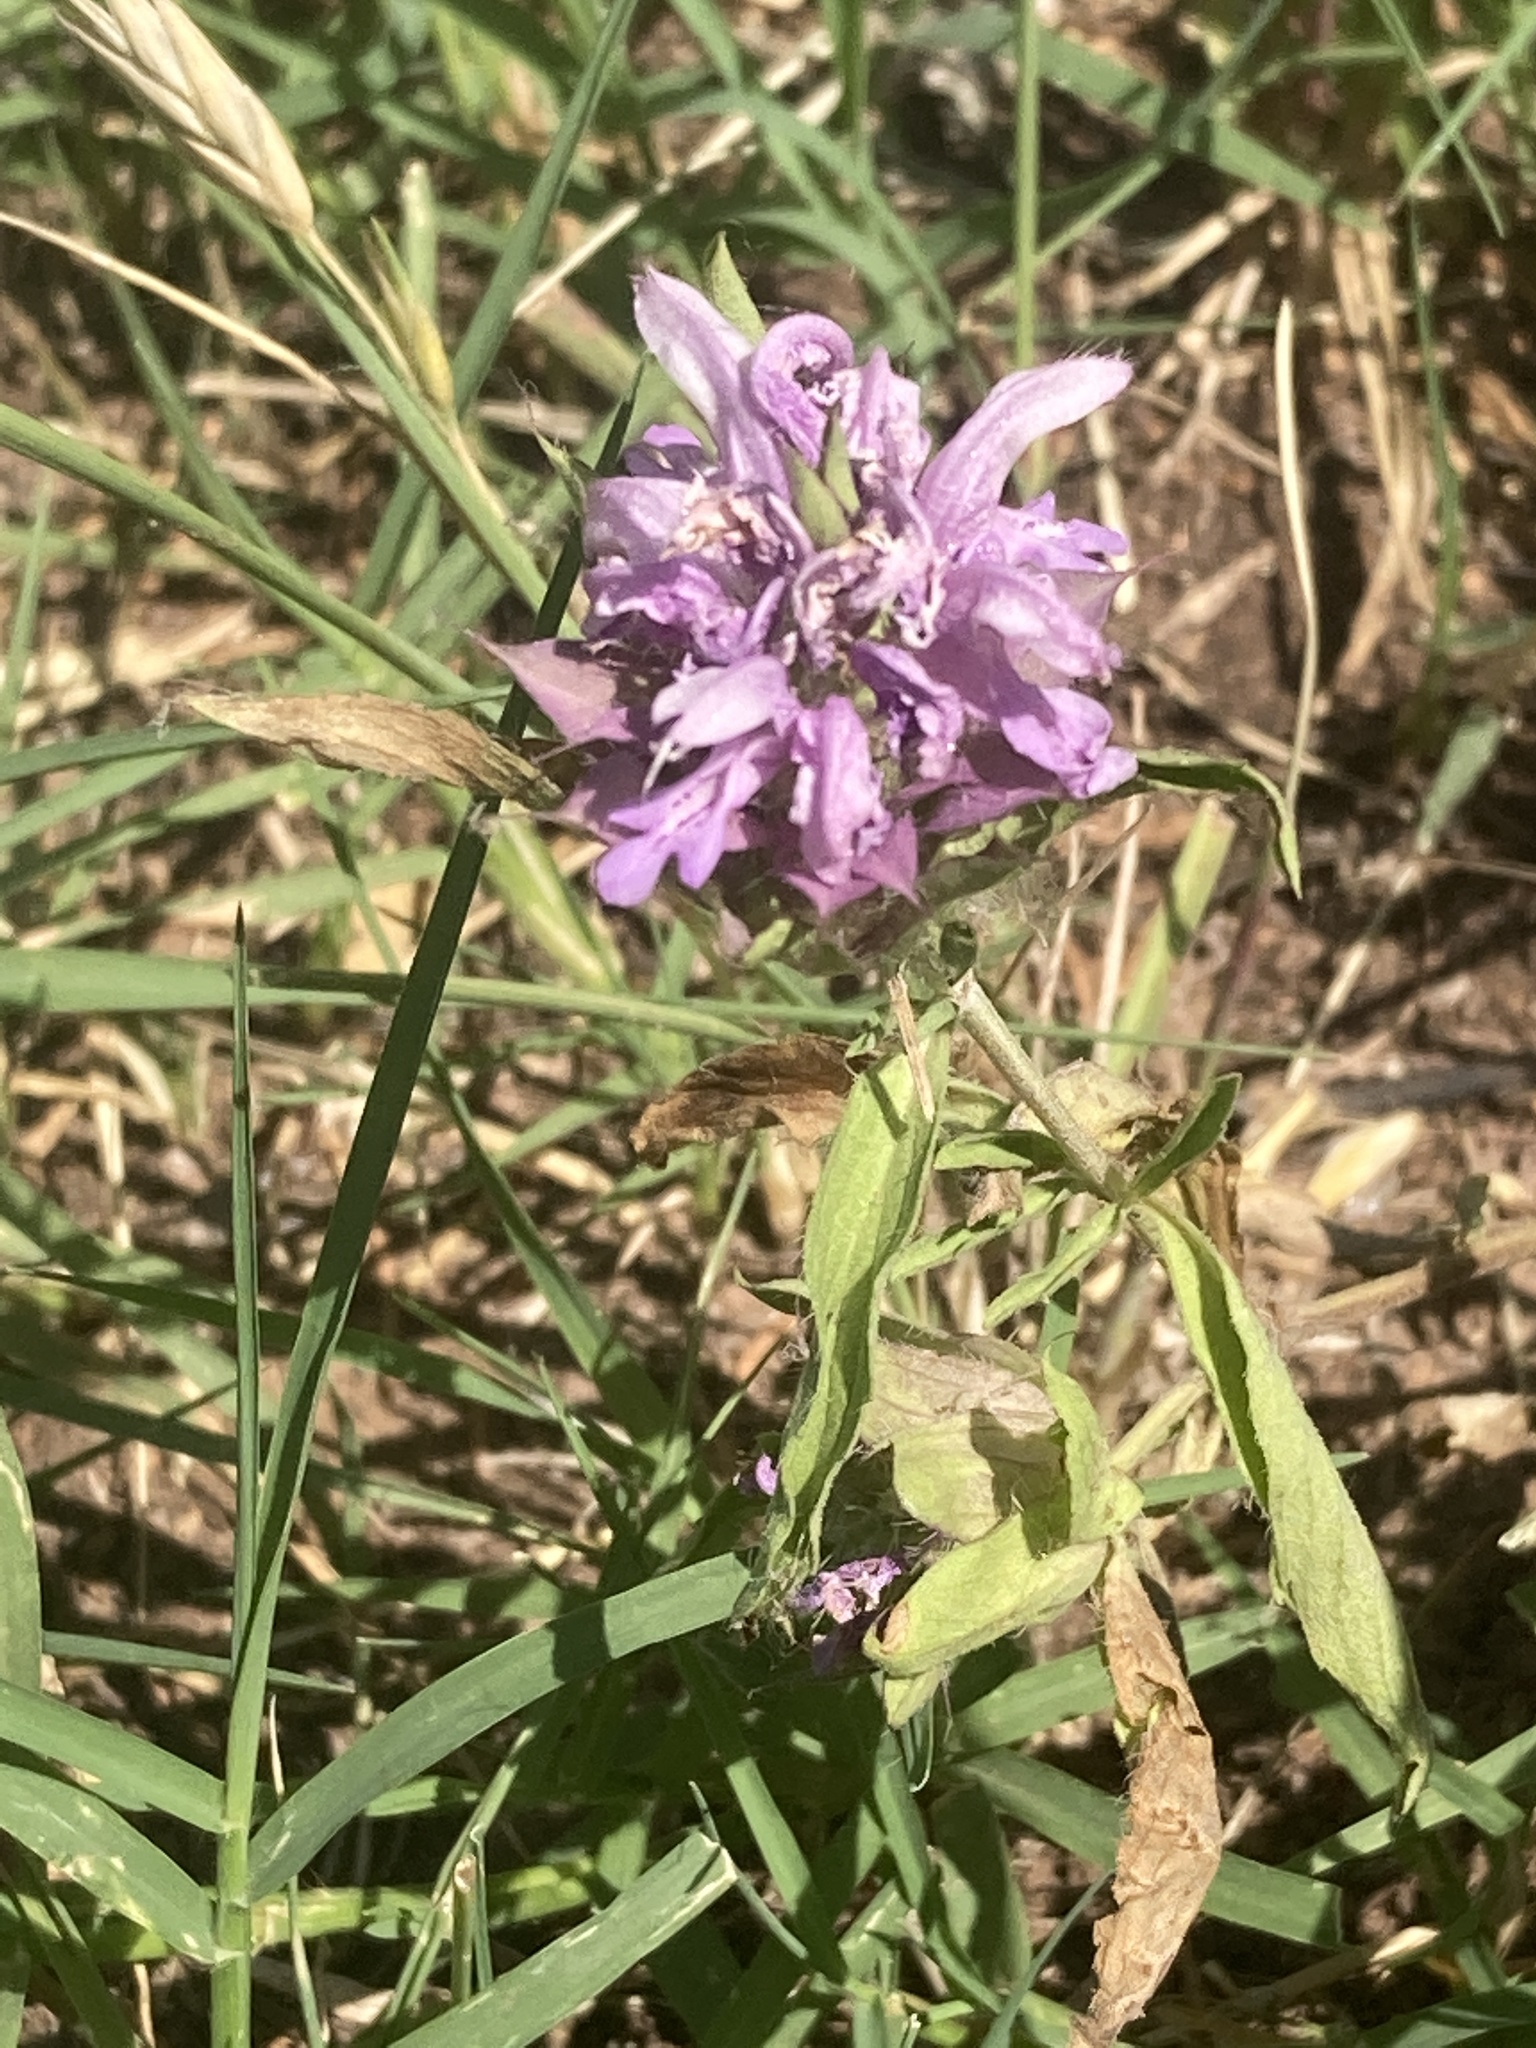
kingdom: Plantae
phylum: Tracheophyta
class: Magnoliopsida
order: Lamiales
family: Lamiaceae
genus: Monarda
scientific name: Monarda citriodora
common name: Lemon beebalm
